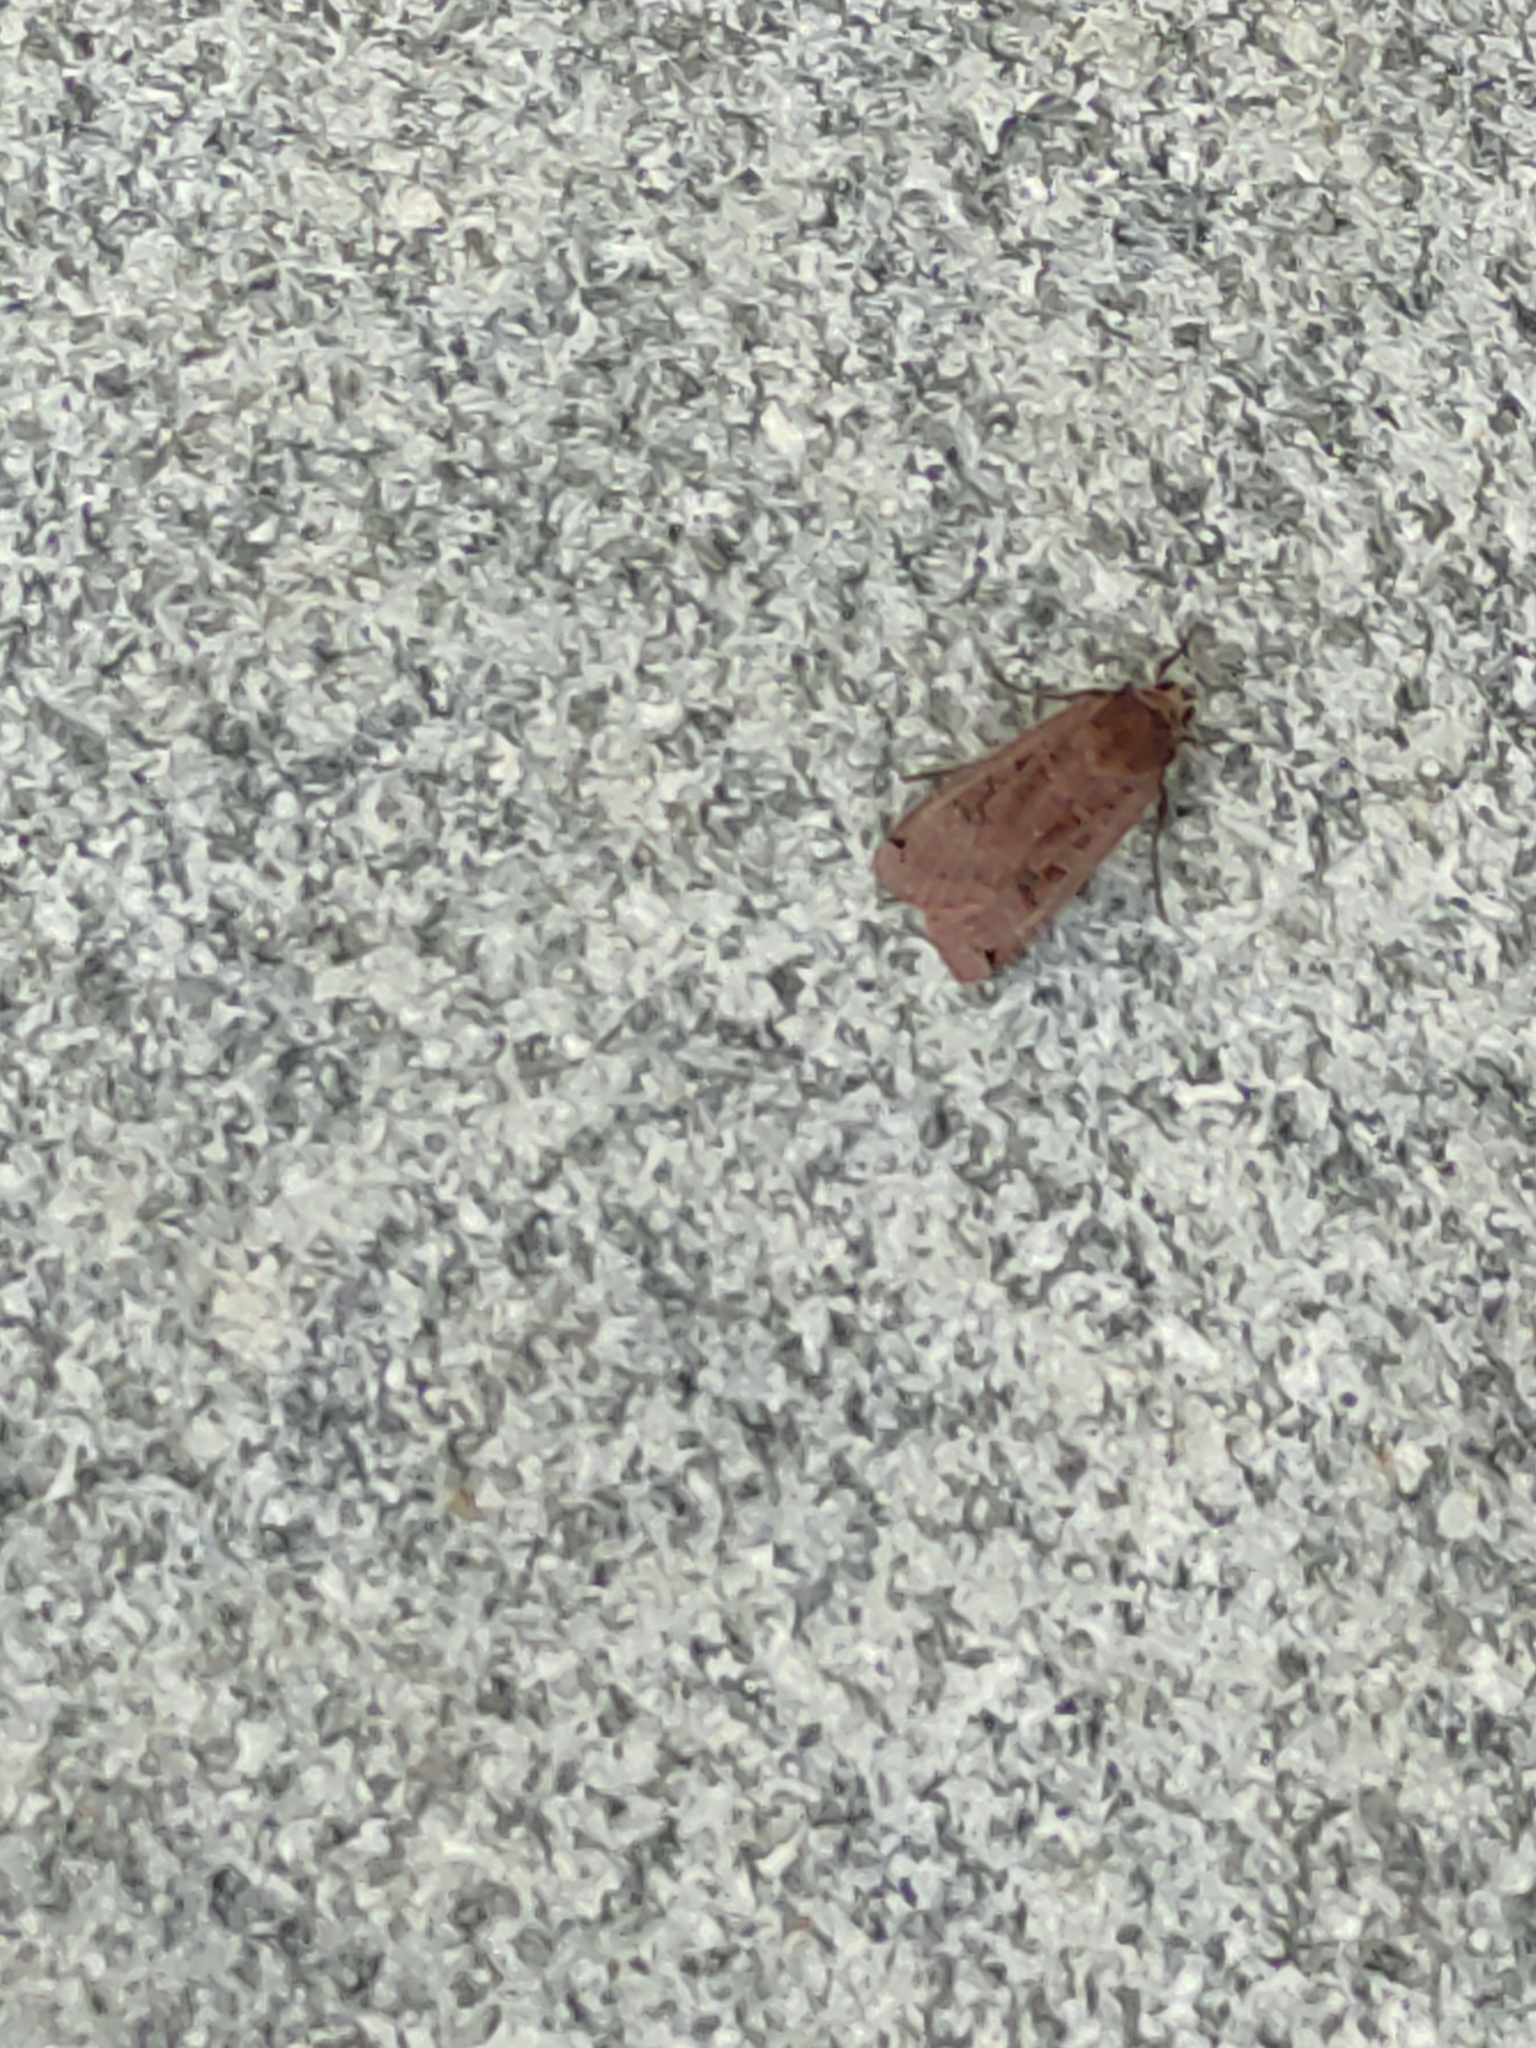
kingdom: Animalia
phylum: Arthropoda
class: Insecta
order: Lepidoptera
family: Noctuidae
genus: Noctua
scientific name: Noctua pronuba
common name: Large yellow underwing
